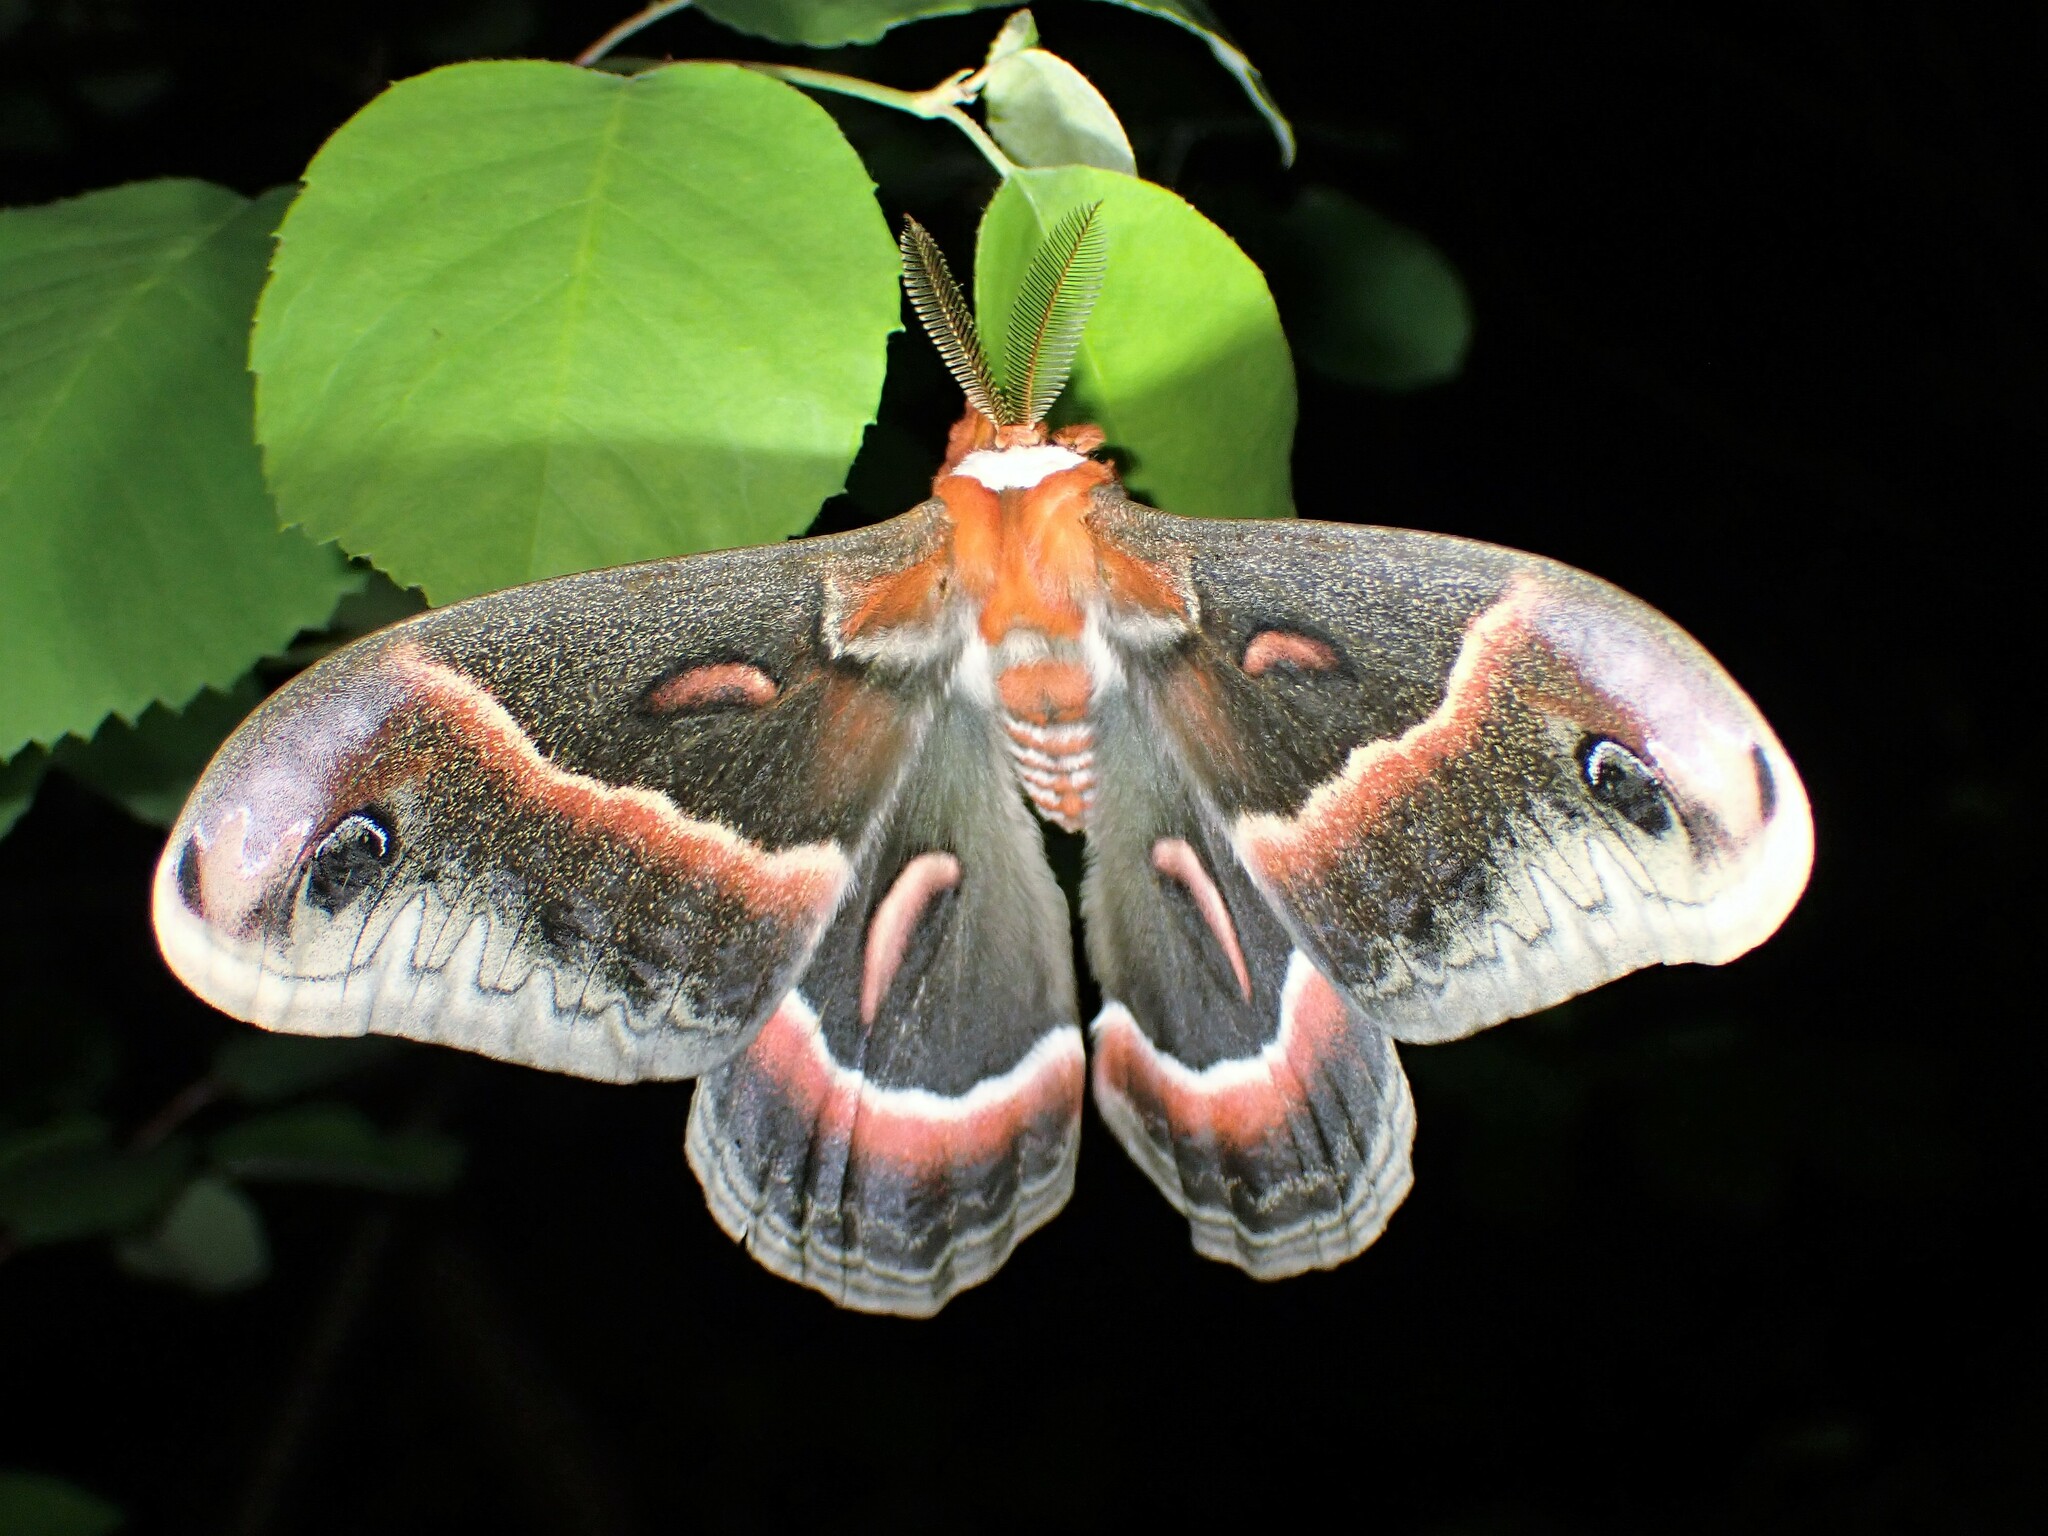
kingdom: Animalia
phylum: Arthropoda
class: Insecta
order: Lepidoptera
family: Saturniidae
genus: Hyalophora
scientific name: Hyalophora cecropia
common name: Cecropia silkmoth
